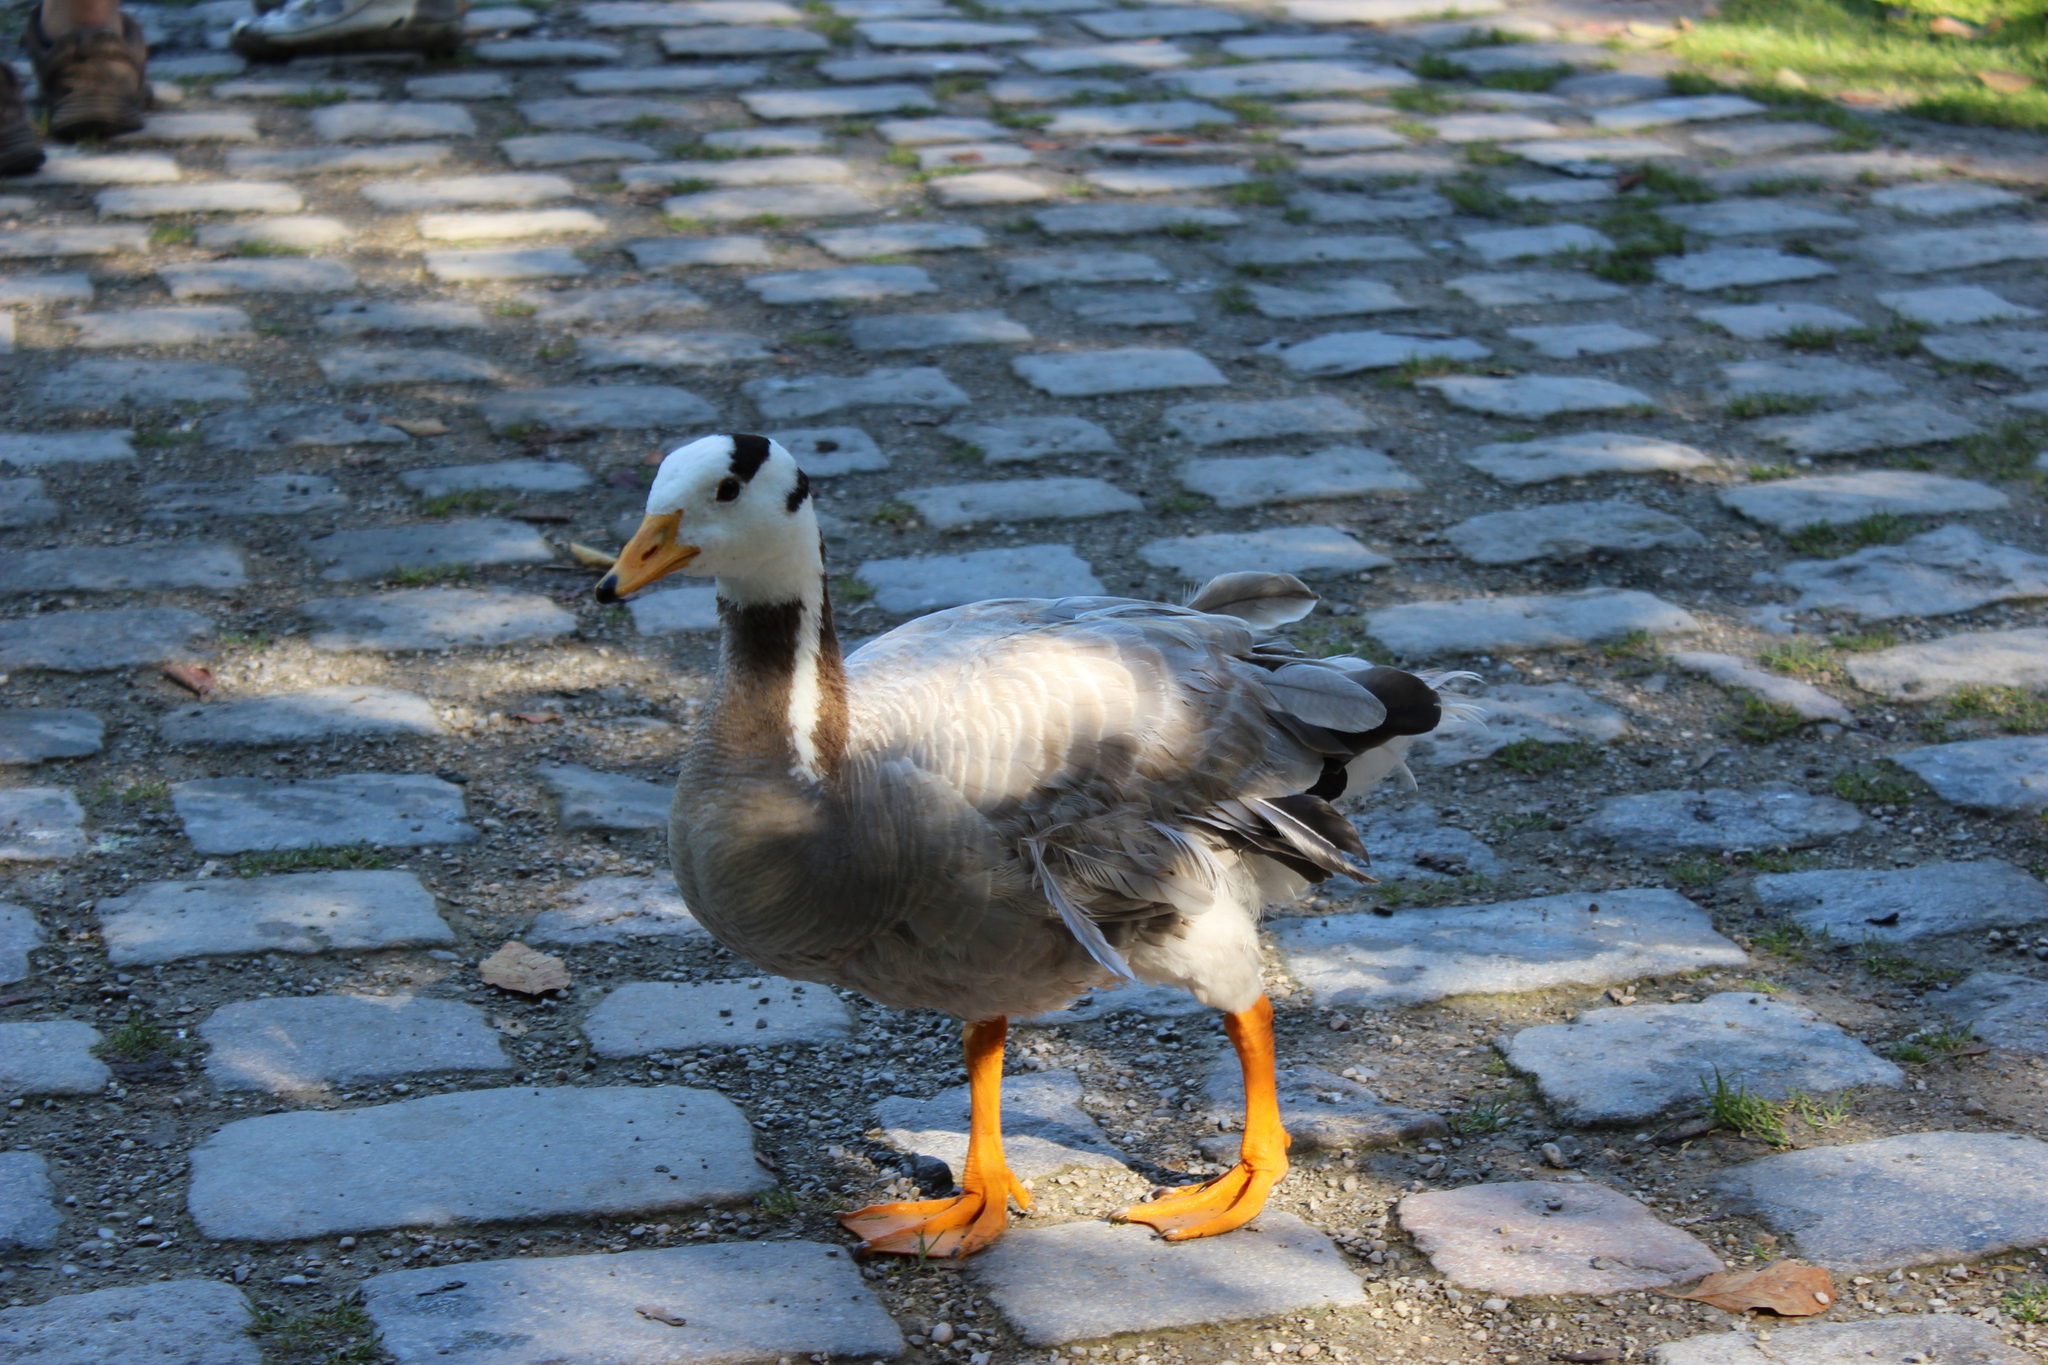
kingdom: Animalia
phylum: Chordata
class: Aves
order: Anseriformes
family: Anatidae
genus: Anser
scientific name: Anser indicus
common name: Bar-headed goose
